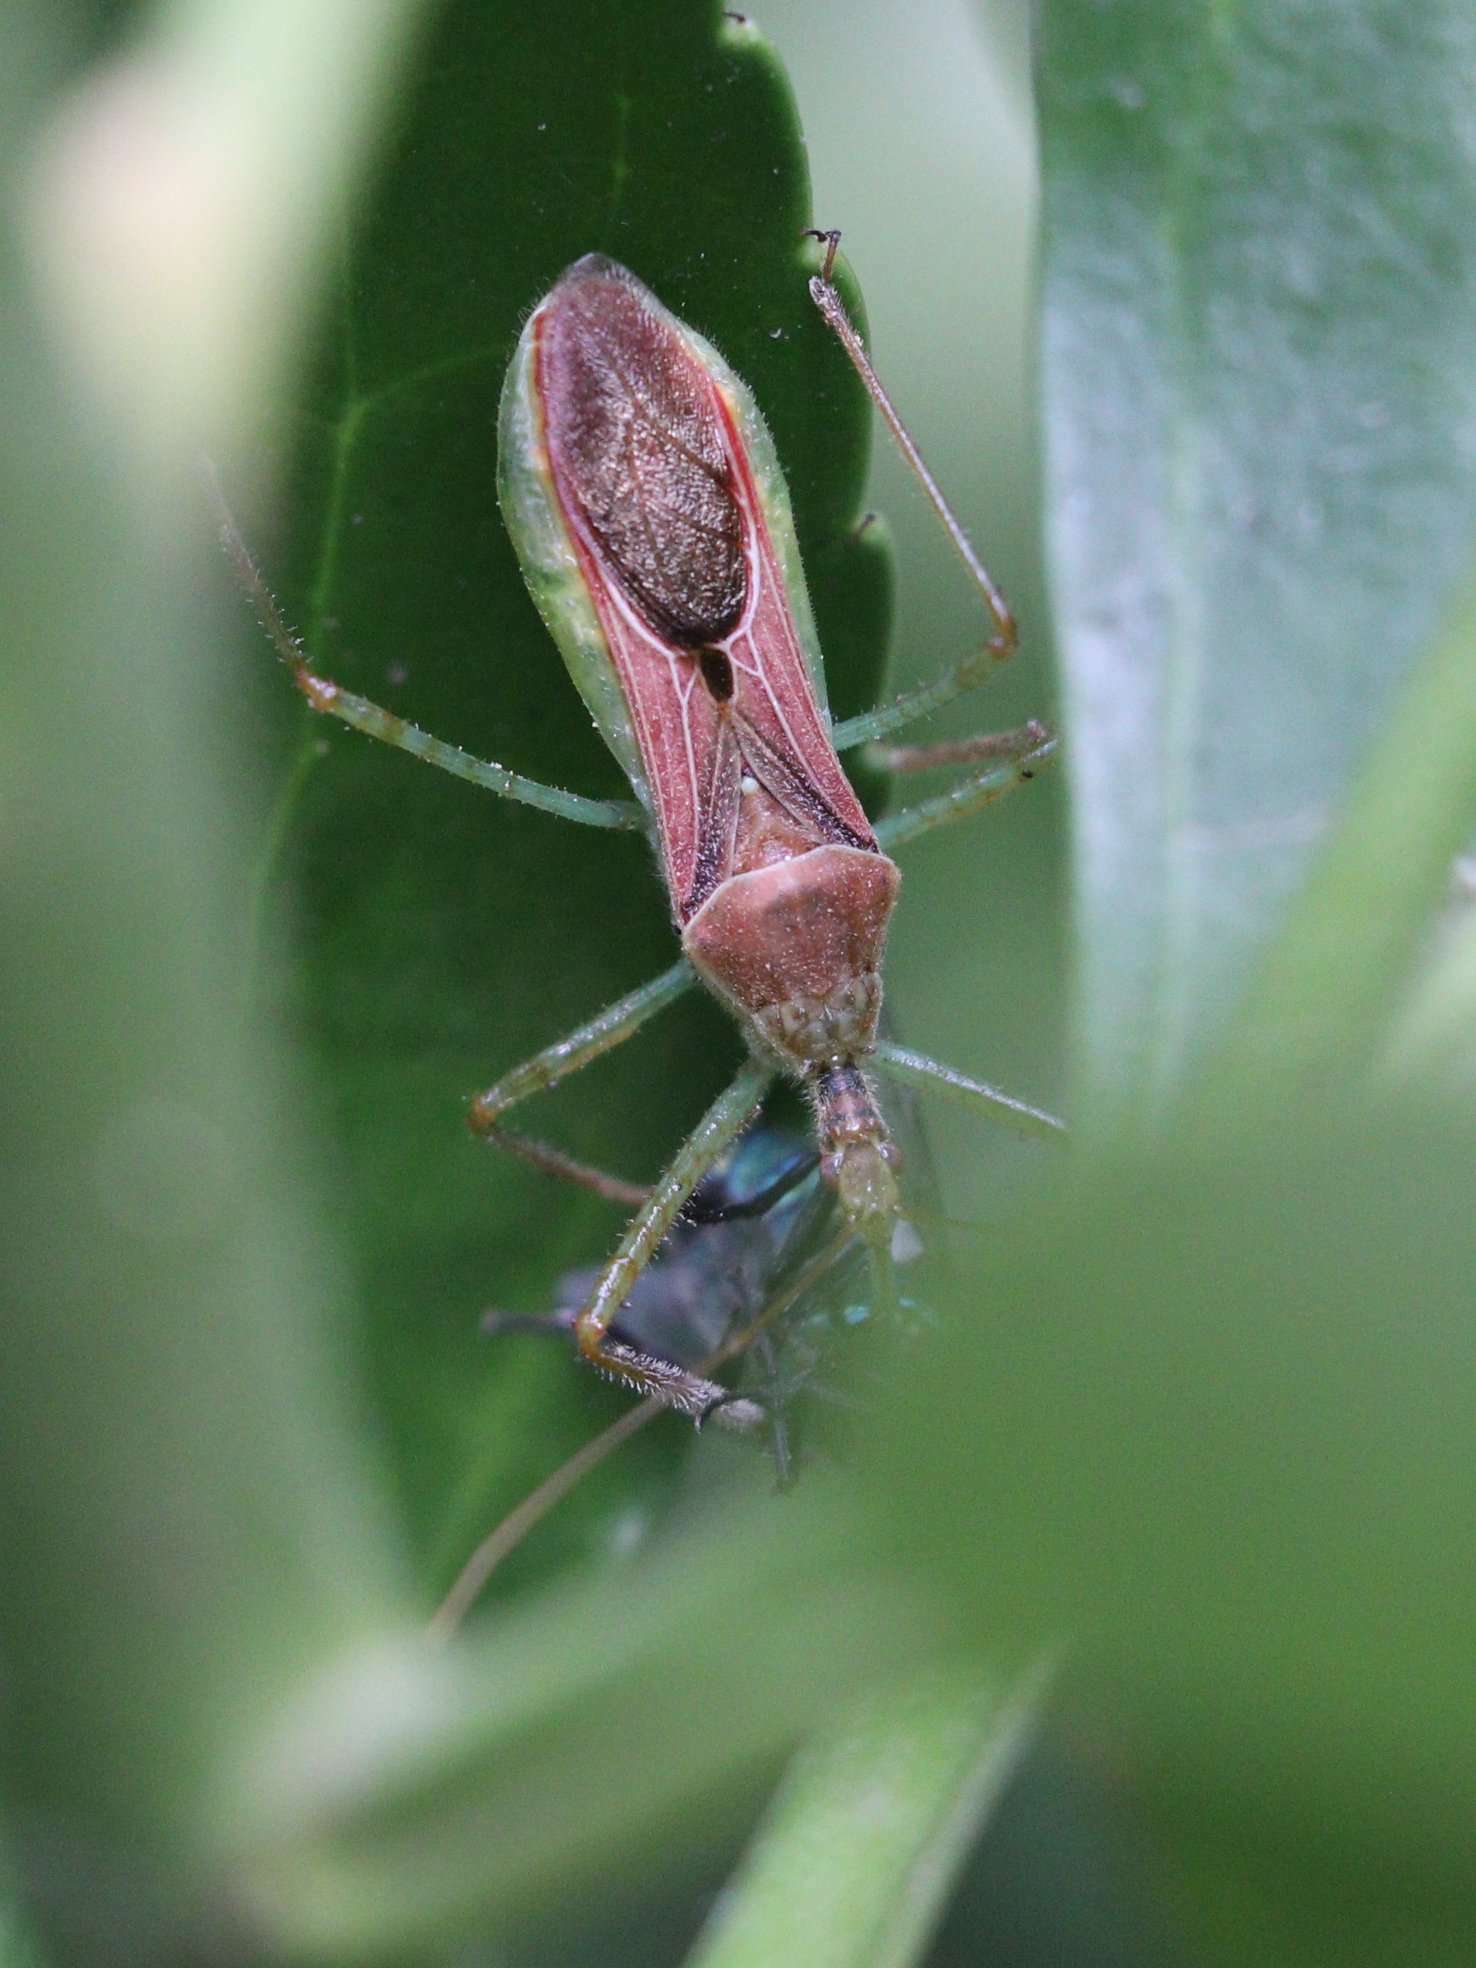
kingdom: Animalia
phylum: Arthropoda
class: Insecta
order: Hemiptera
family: Reduviidae
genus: Zelus
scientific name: Zelus renardii
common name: Assassin bug
